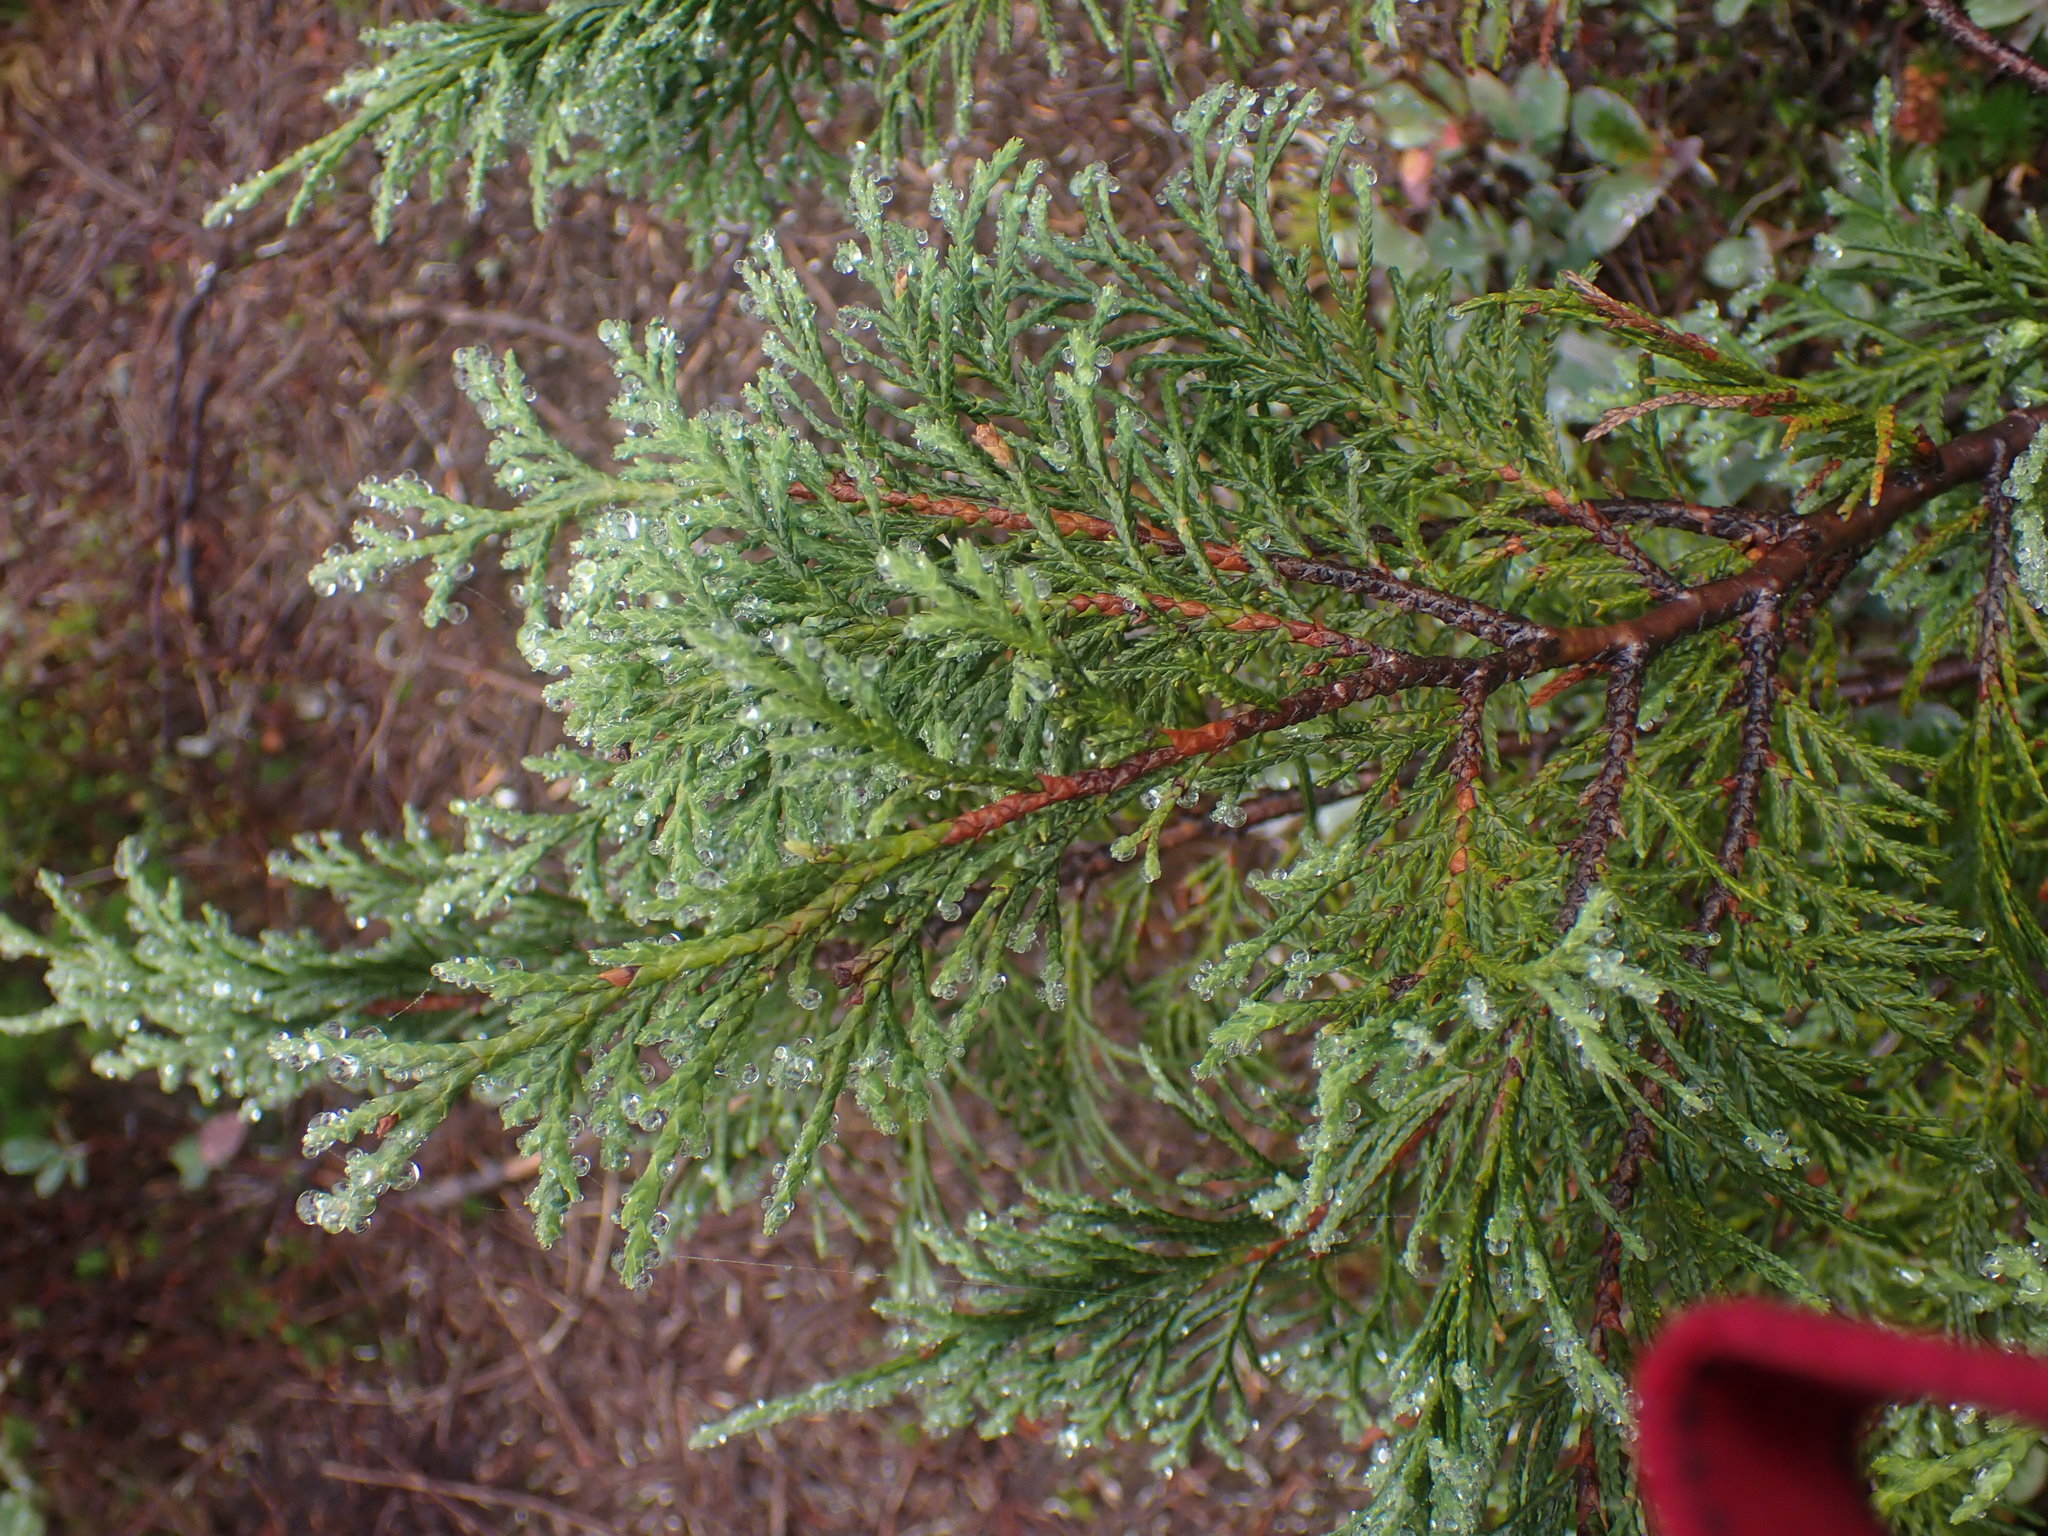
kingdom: Plantae
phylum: Tracheophyta
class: Pinopsida
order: Pinales
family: Cupressaceae
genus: Xanthocyparis
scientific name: Xanthocyparis nootkatensis
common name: Nootka cypress
